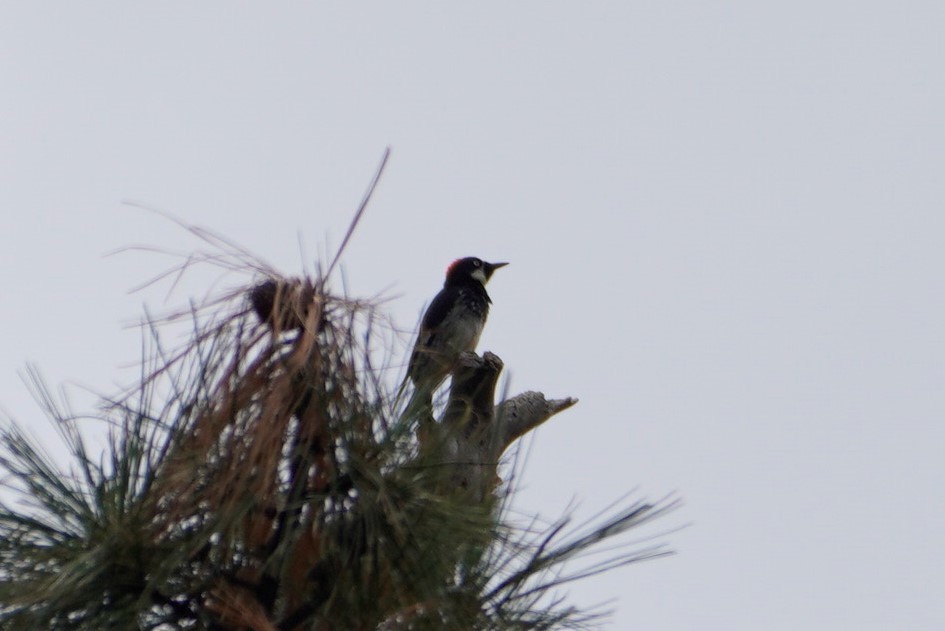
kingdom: Animalia
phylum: Chordata
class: Aves
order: Piciformes
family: Picidae
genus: Melanerpes
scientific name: Melanerpes formicivorus
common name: Acorn woodpecker
